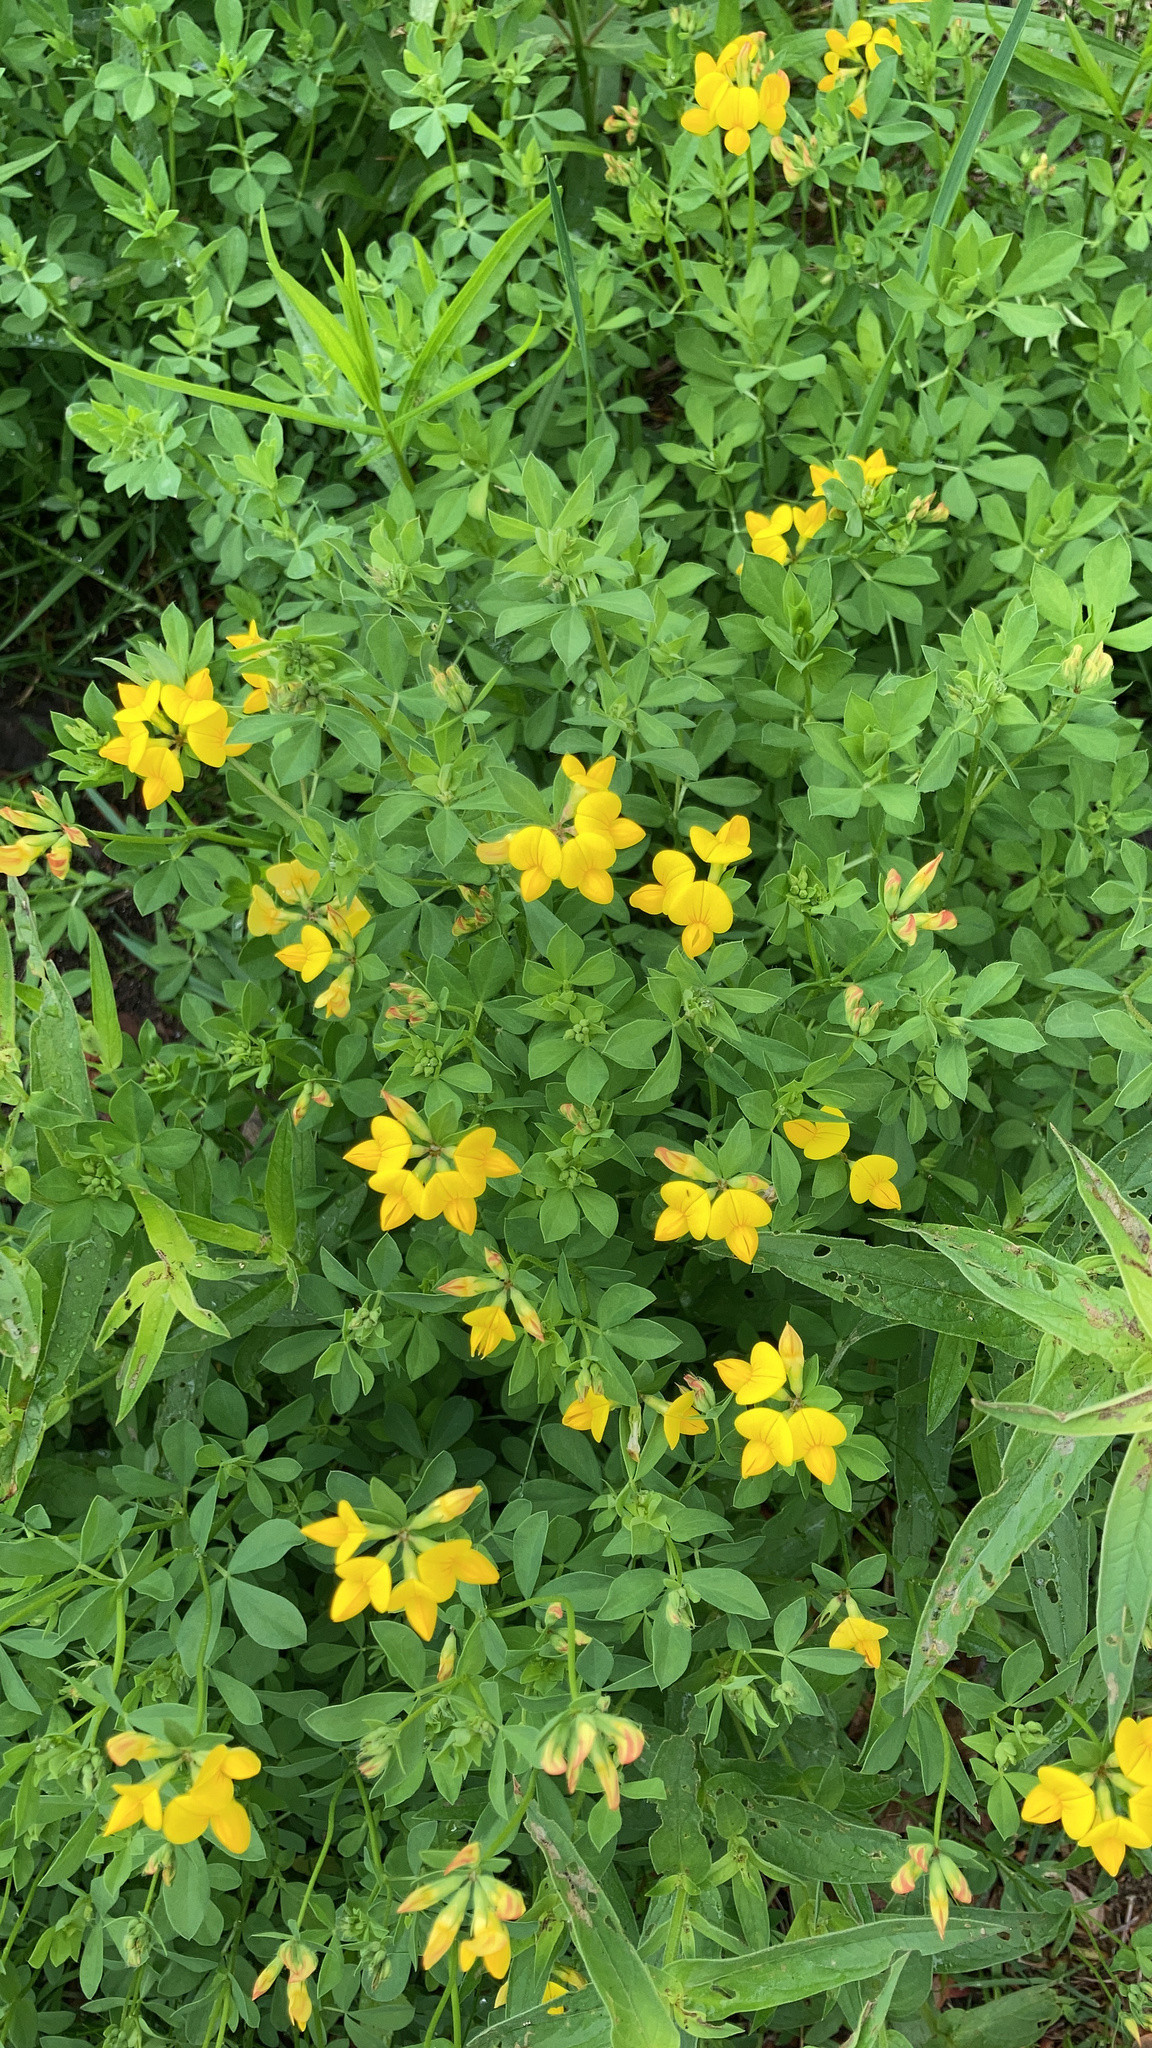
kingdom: Plantae
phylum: Tracheophyta
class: Magnoliopsida
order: Fabales
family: Fabaceae
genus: Lotus
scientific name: Lotus corniculatus
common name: Common bird's-foot-trefoil
